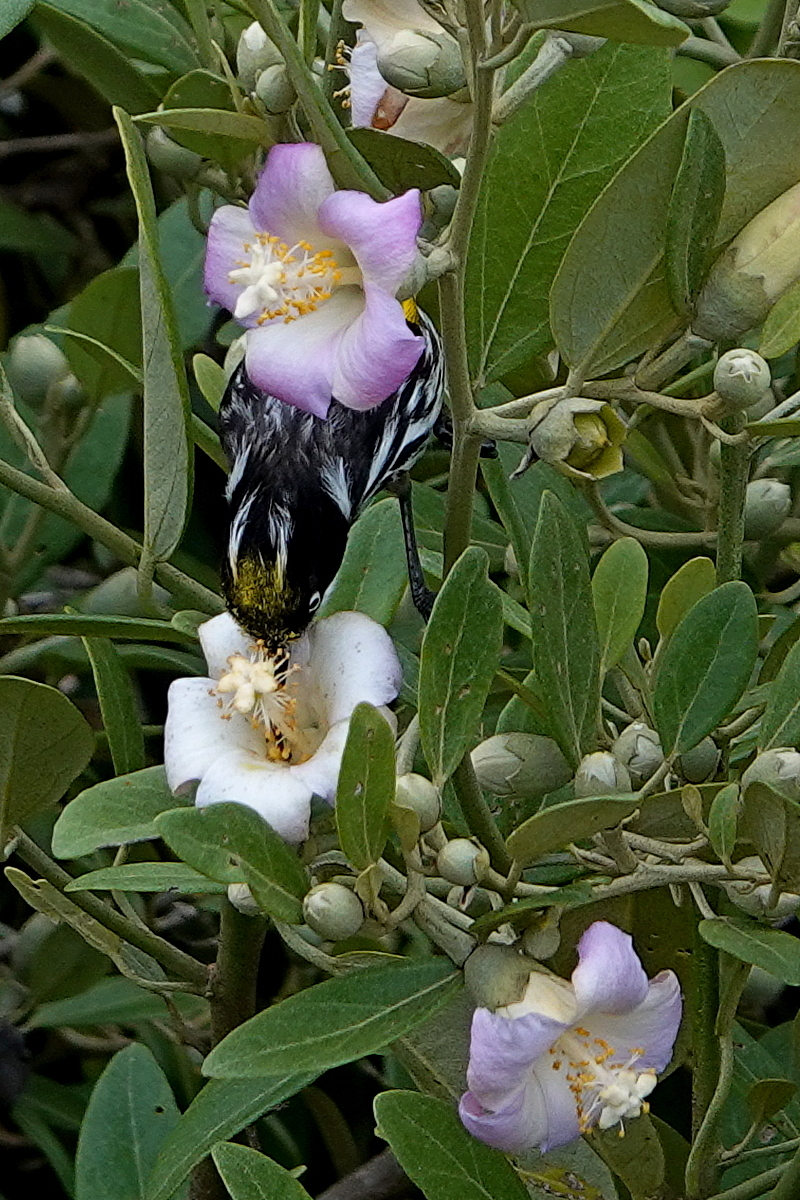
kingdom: Animalia
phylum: Chordata
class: Aves
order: Passeriformes
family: Meliphagidae
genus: Phylidonyris
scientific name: Phylidonyris novaehollandiae
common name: New holland honeyeater
